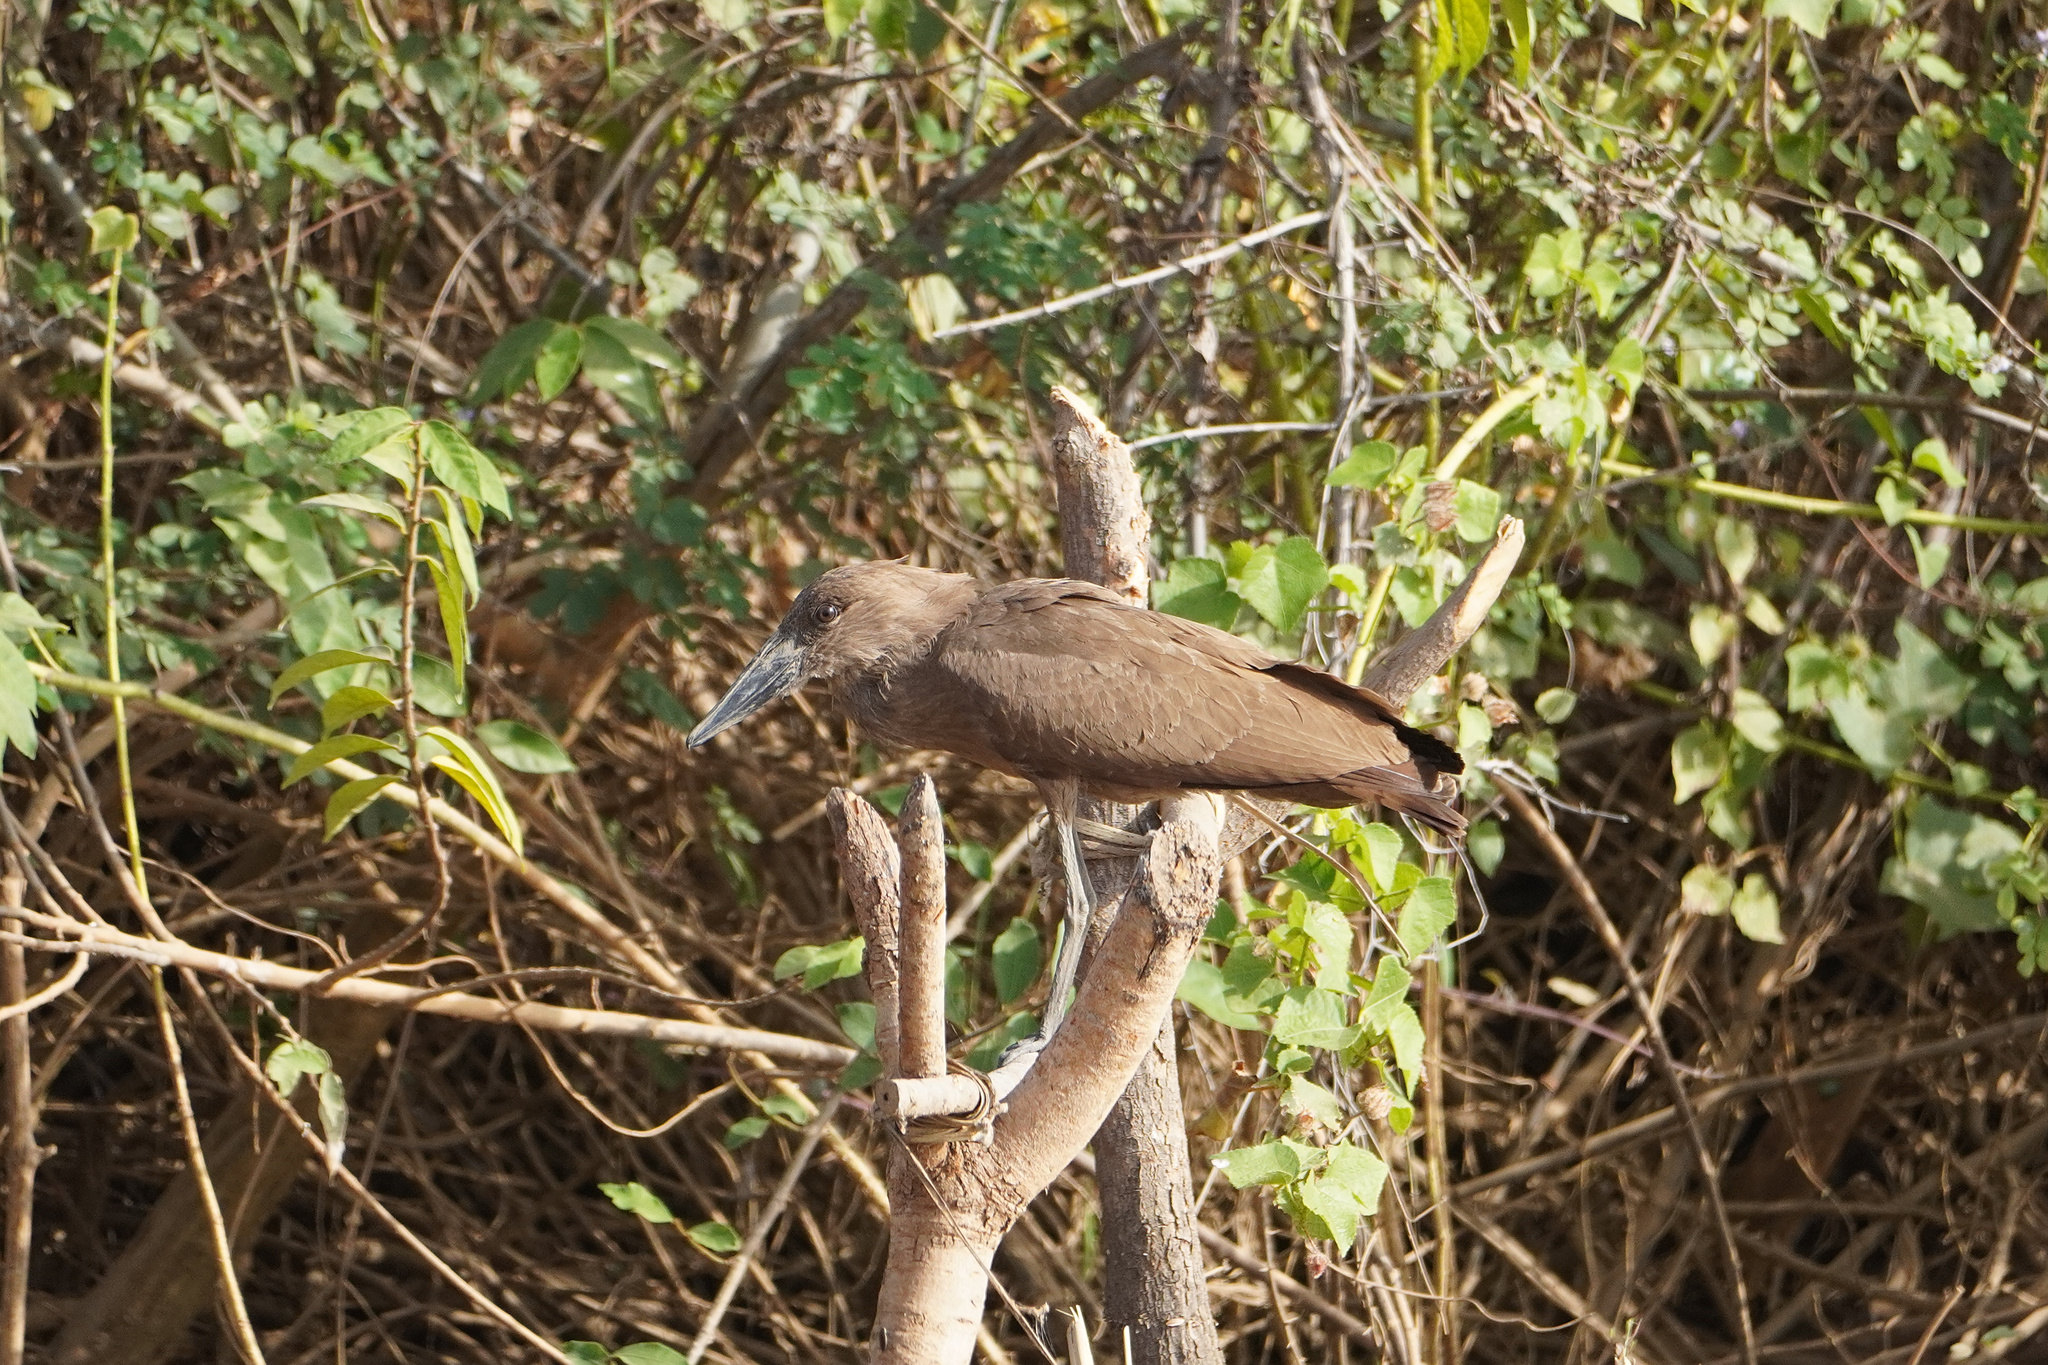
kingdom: Animalia
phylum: Chordata
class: Aves
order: Pelecaniformes
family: Scopidae
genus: Scopus
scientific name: Scopus umbretta
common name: Hamerkop
